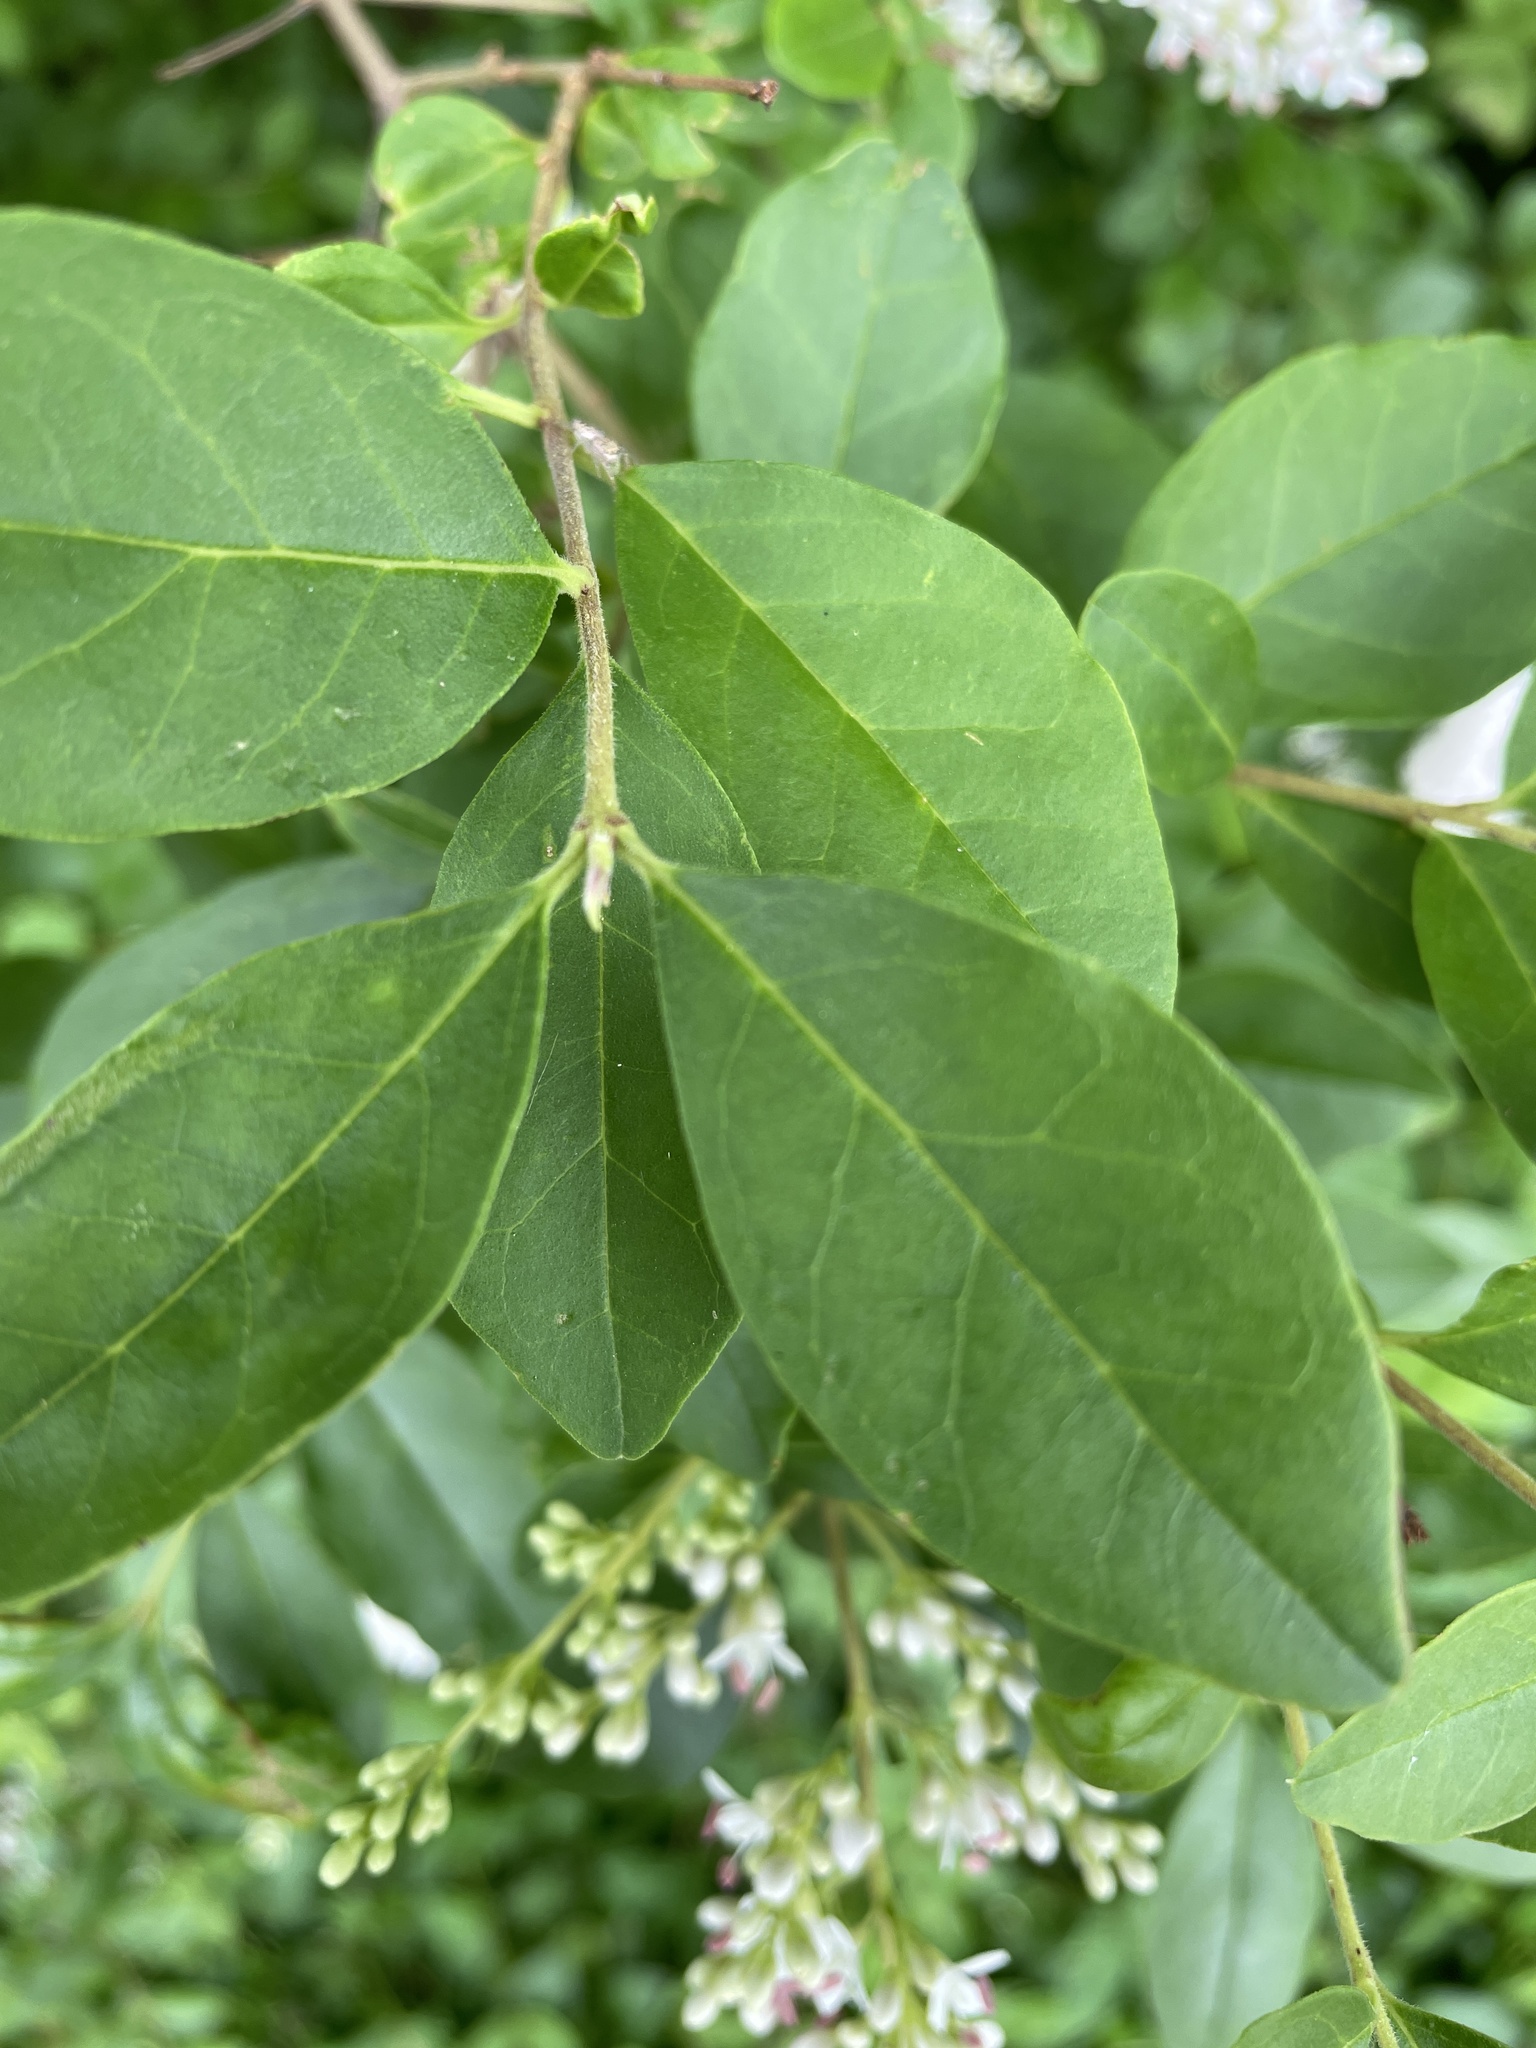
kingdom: Plantae
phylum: Tracheophyta
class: Magnoliopsida
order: Lamiales
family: Oleaceae
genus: Ligustrum
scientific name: Ligustrum sinense
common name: Chinese privet
